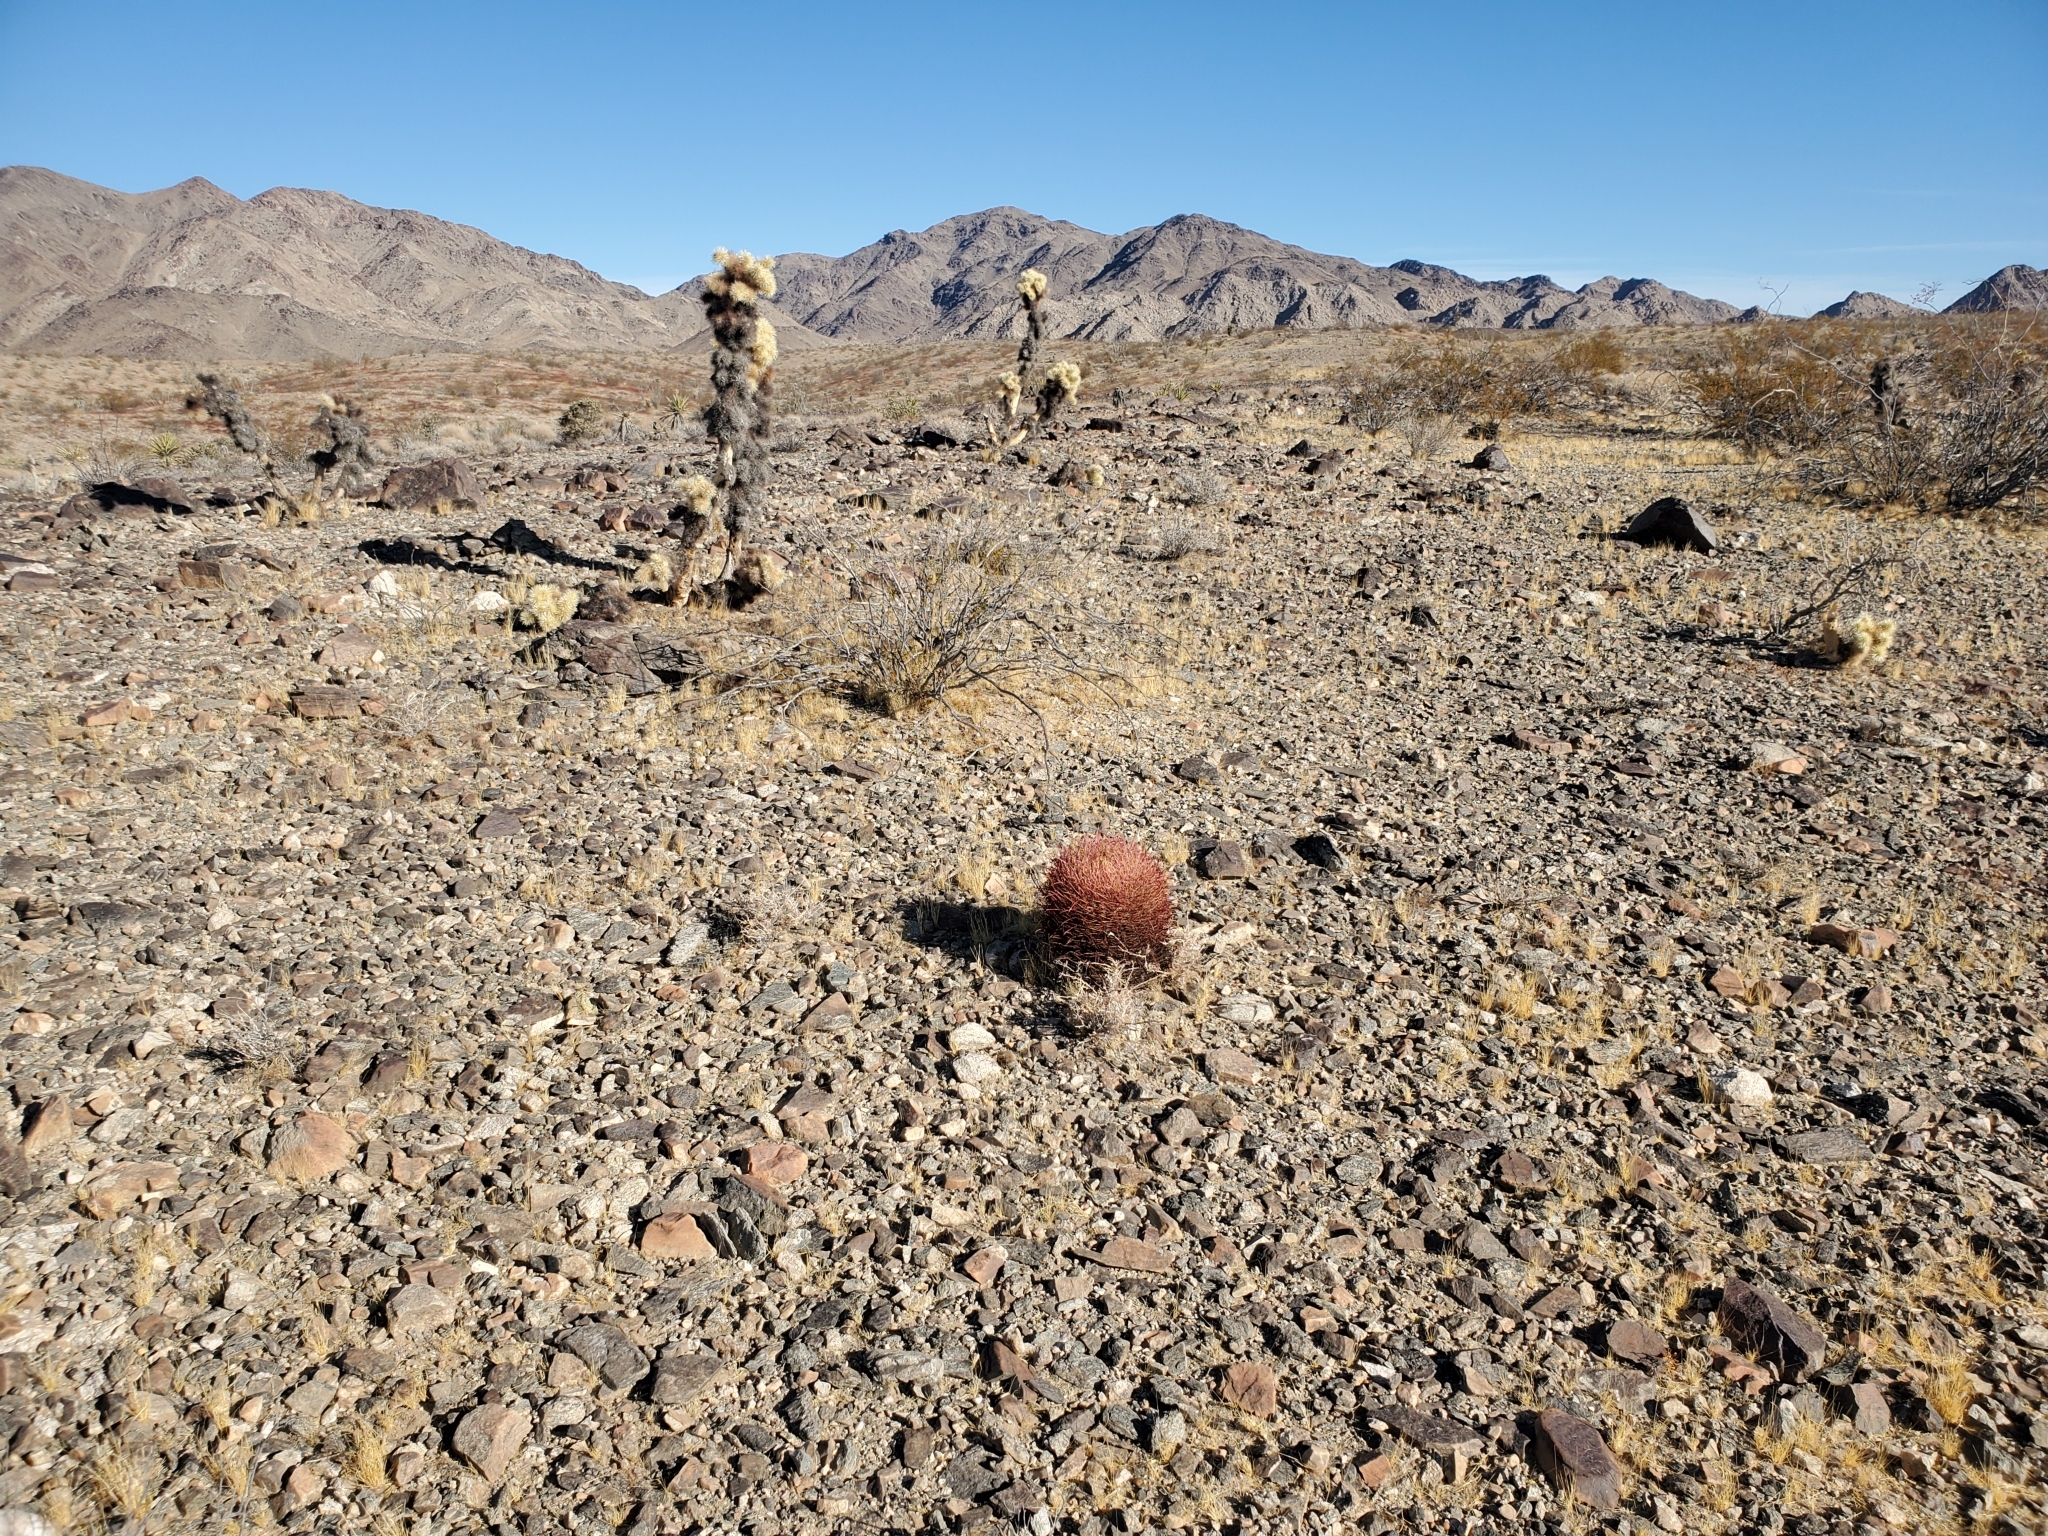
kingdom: Plantae
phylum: Tracheophyta
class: Magnoliopsida
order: Caryophyllales
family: Cactaceae
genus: Ferocactus
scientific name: Ferocactus cylindraceus
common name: California barrel cactus
